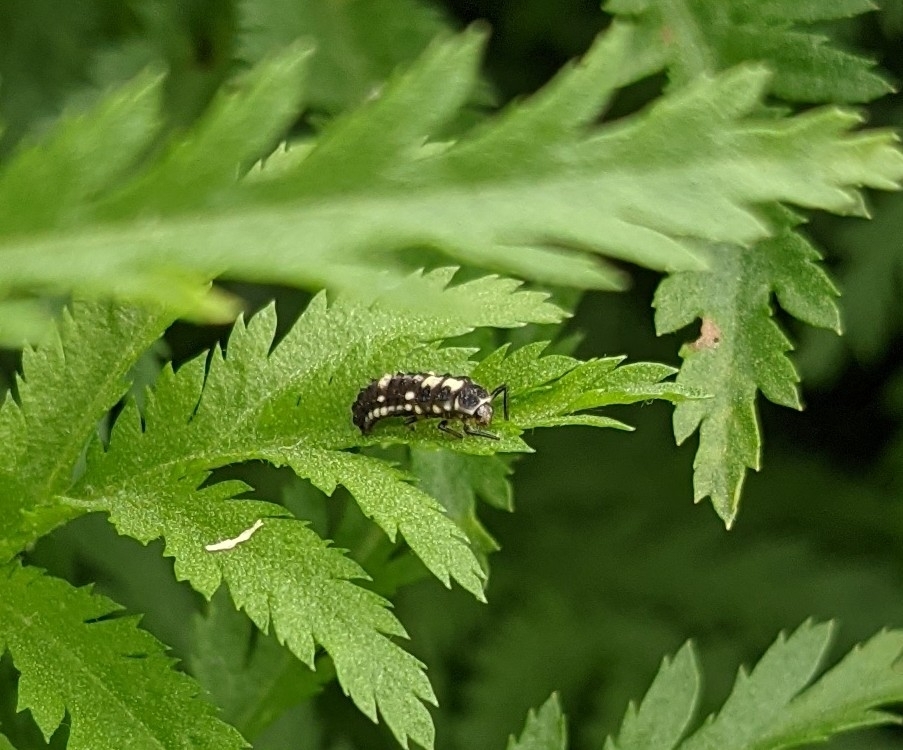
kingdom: Animalia
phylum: Arthropoda
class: Insecta
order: Coleoptera
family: Coccinellidae
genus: Propylaea
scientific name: Propylaea quatuordecimpunctata
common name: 14-spotted ladybird beetle
